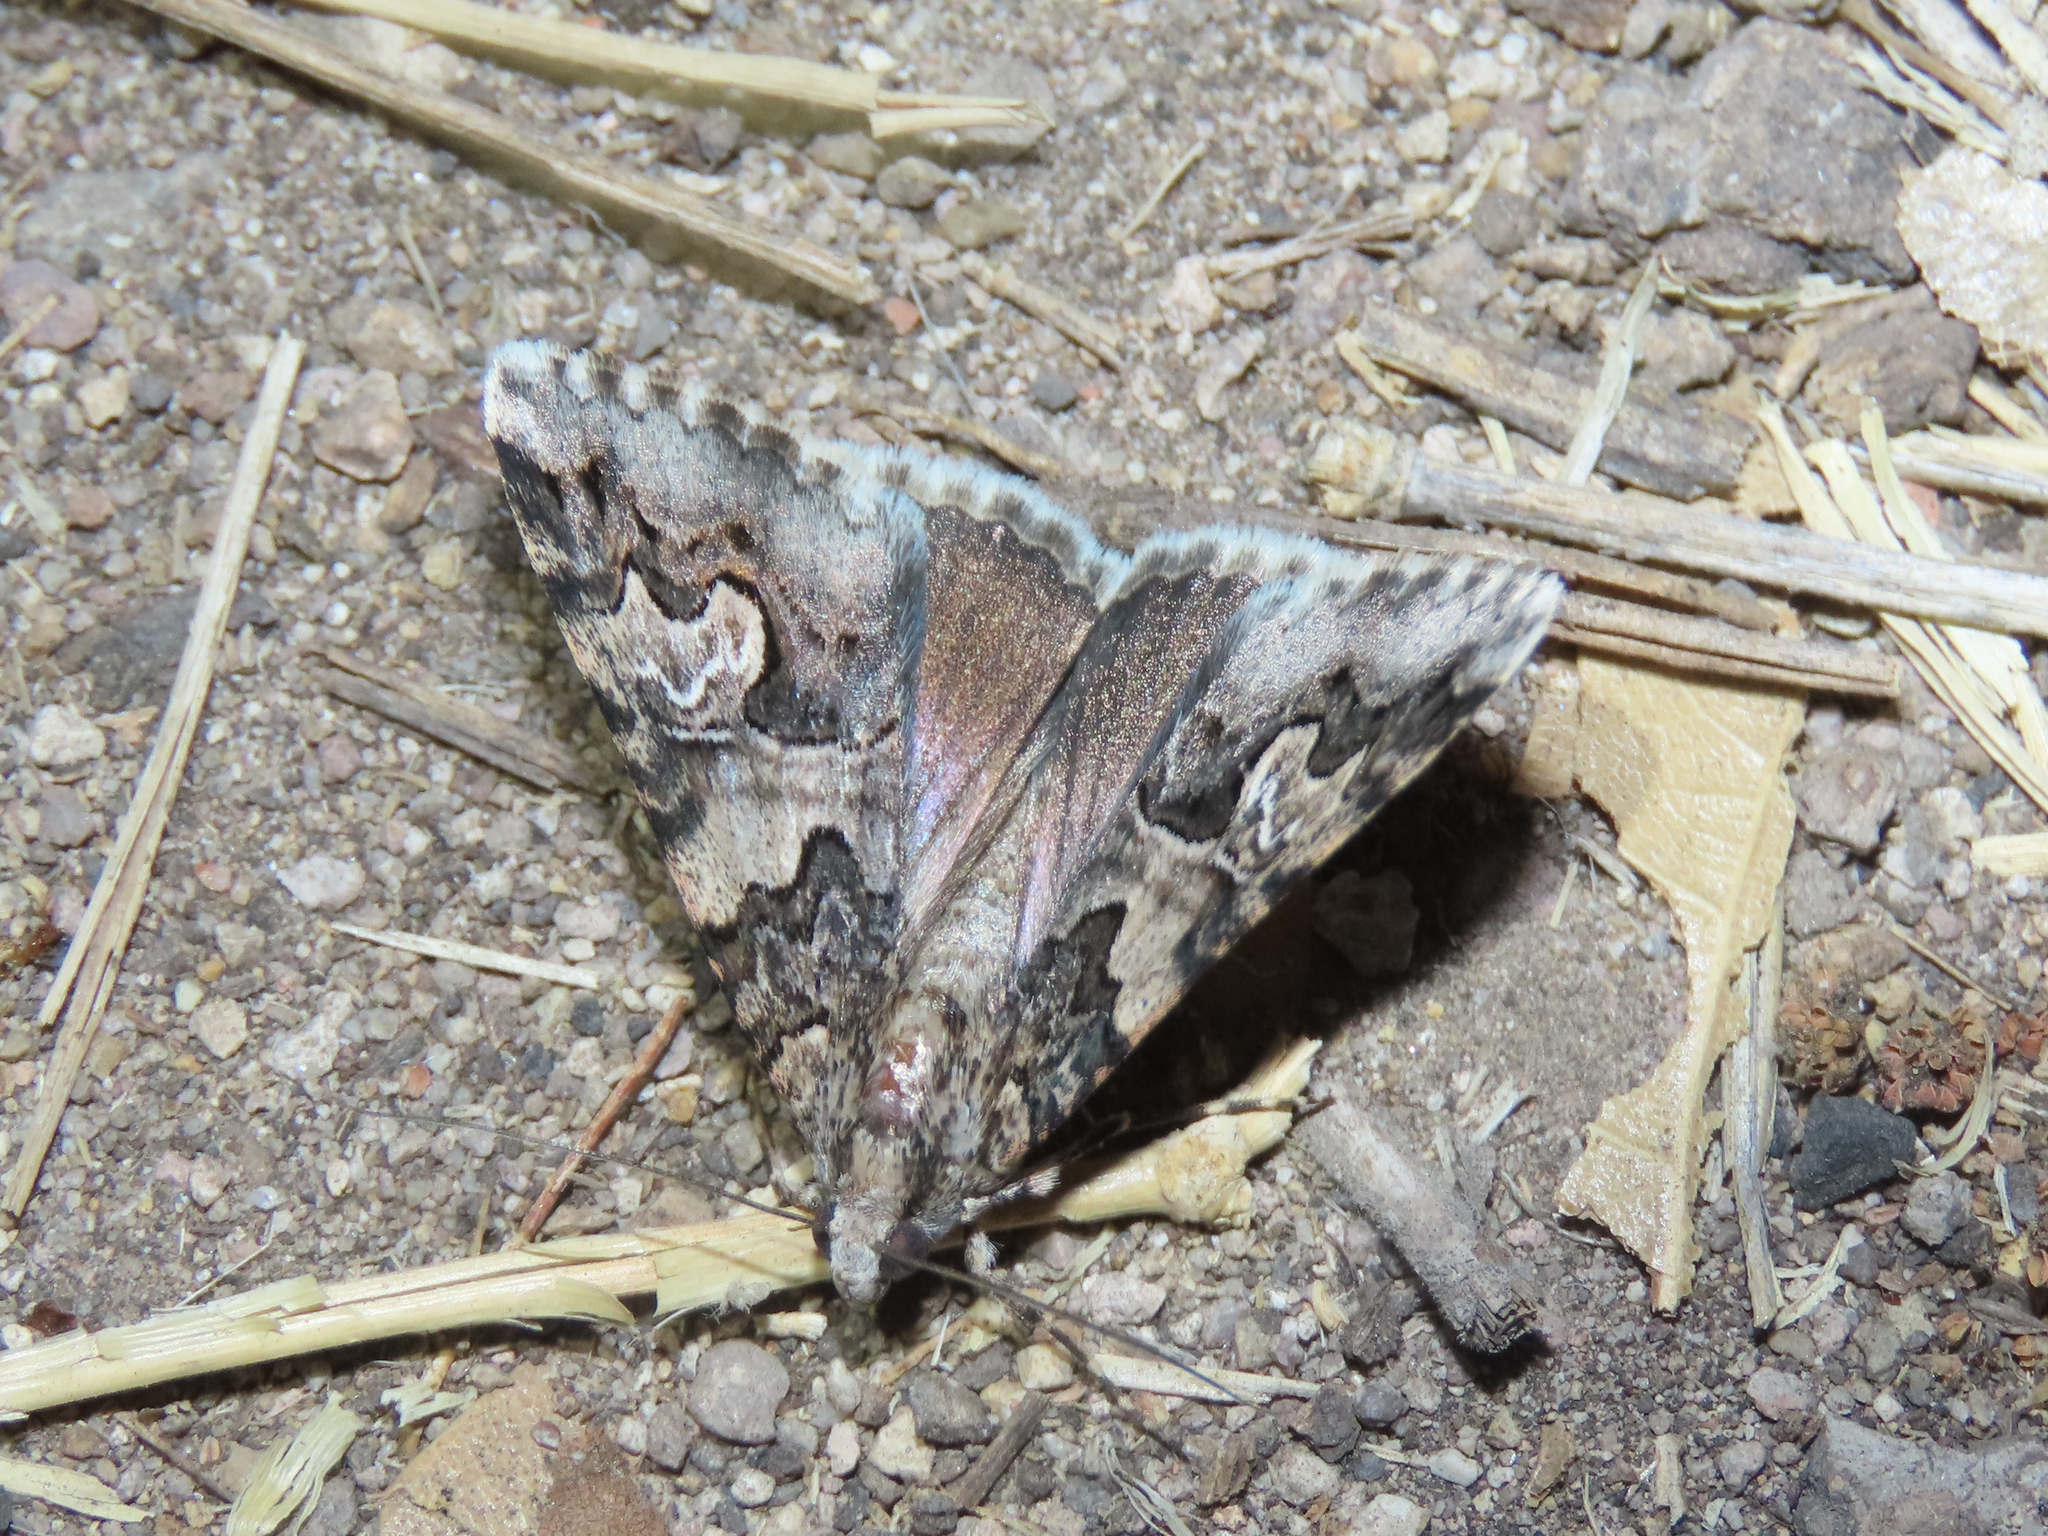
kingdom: Animalia
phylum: Arthropoda
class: Insecta
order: Lepidoptera
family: Erebidae
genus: Drasteria
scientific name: Drasteria sabulosa
